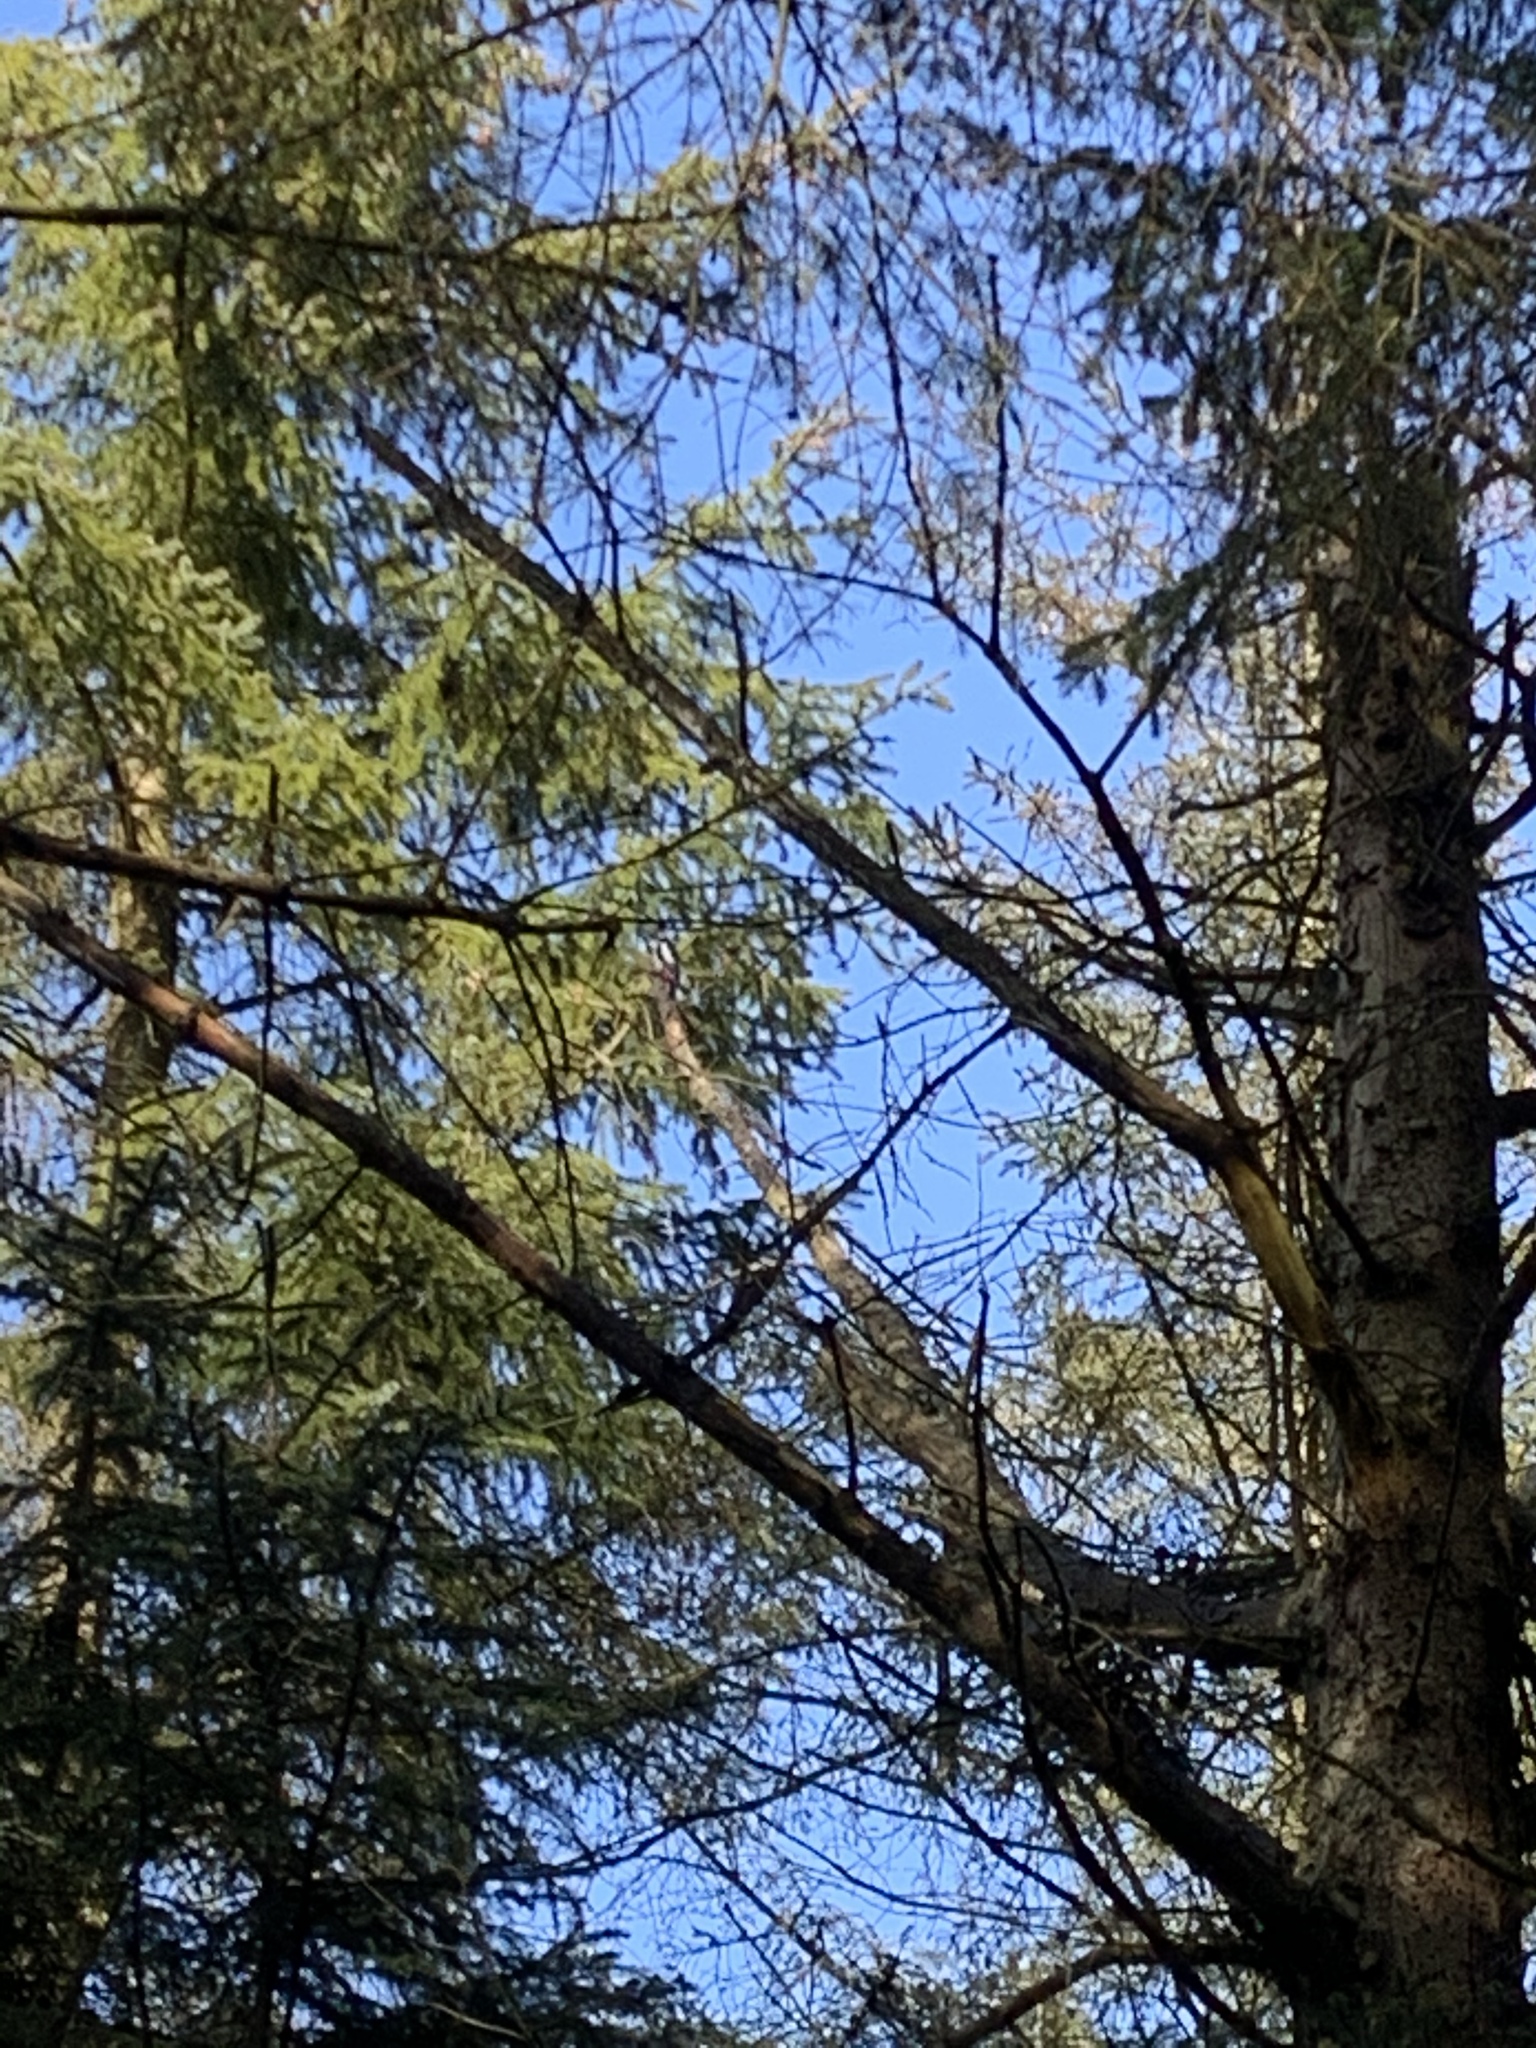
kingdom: Animalia
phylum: Chordata
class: Aves
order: Piciformes
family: Picidae
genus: Dendrocopos
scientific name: Dendrocopos major
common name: Great spotted woodpecker
